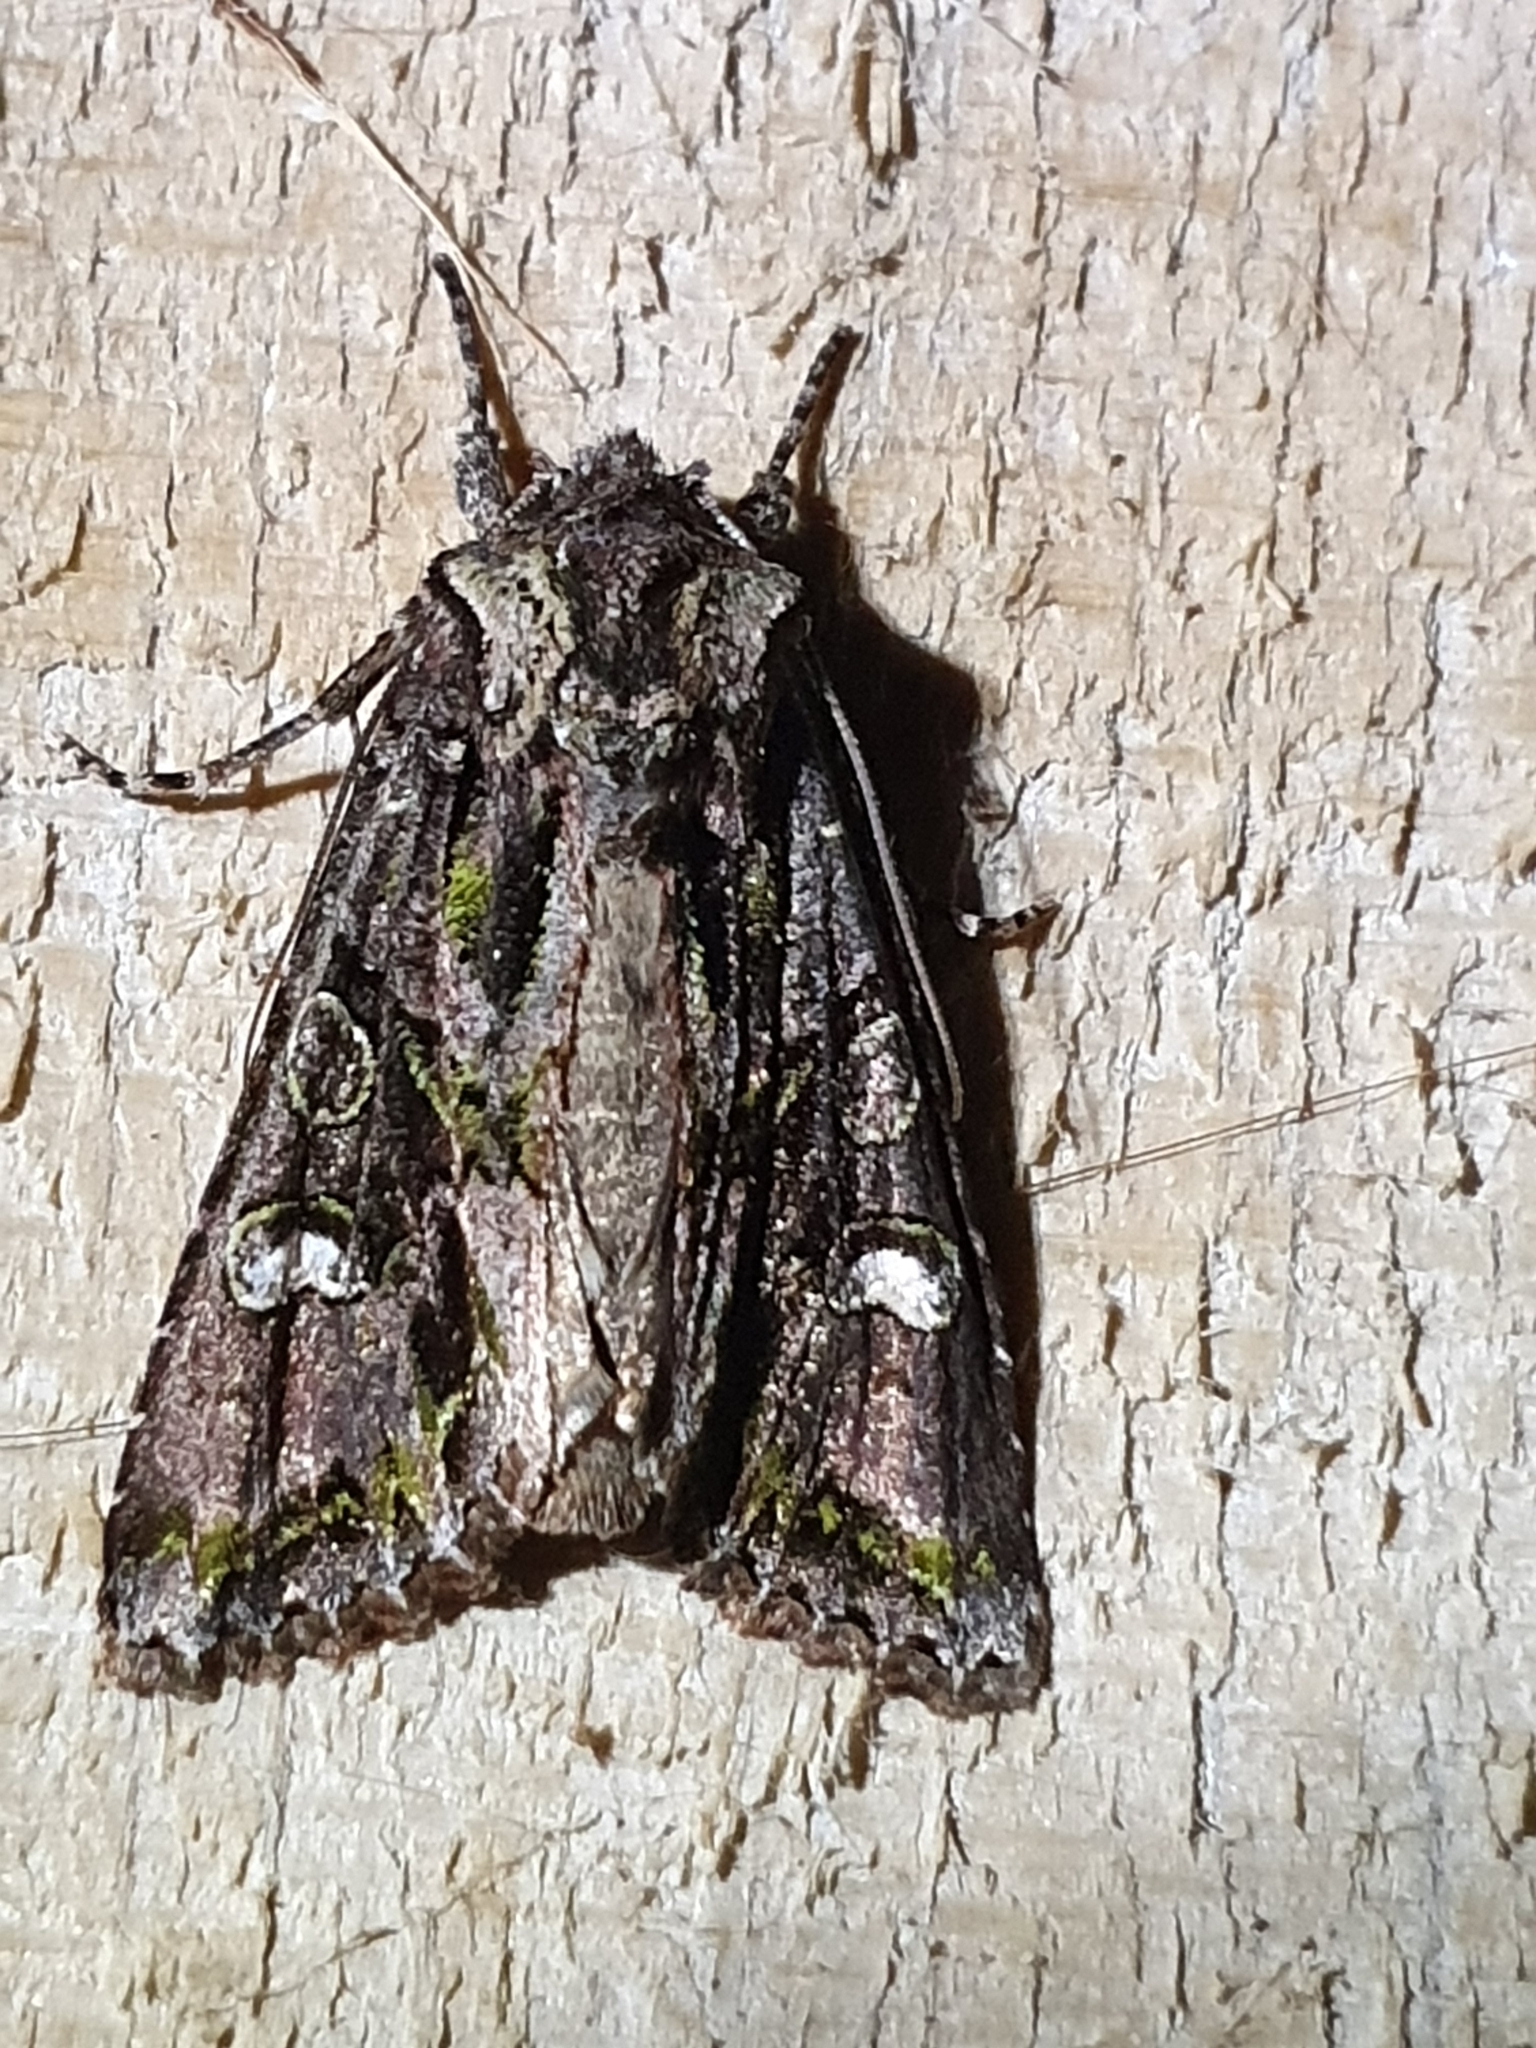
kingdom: Animalia
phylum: Arthropoda
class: Insecta
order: Lepidoptera
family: Noctuidae
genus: Ichneutica
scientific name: Ichneutica insignis
